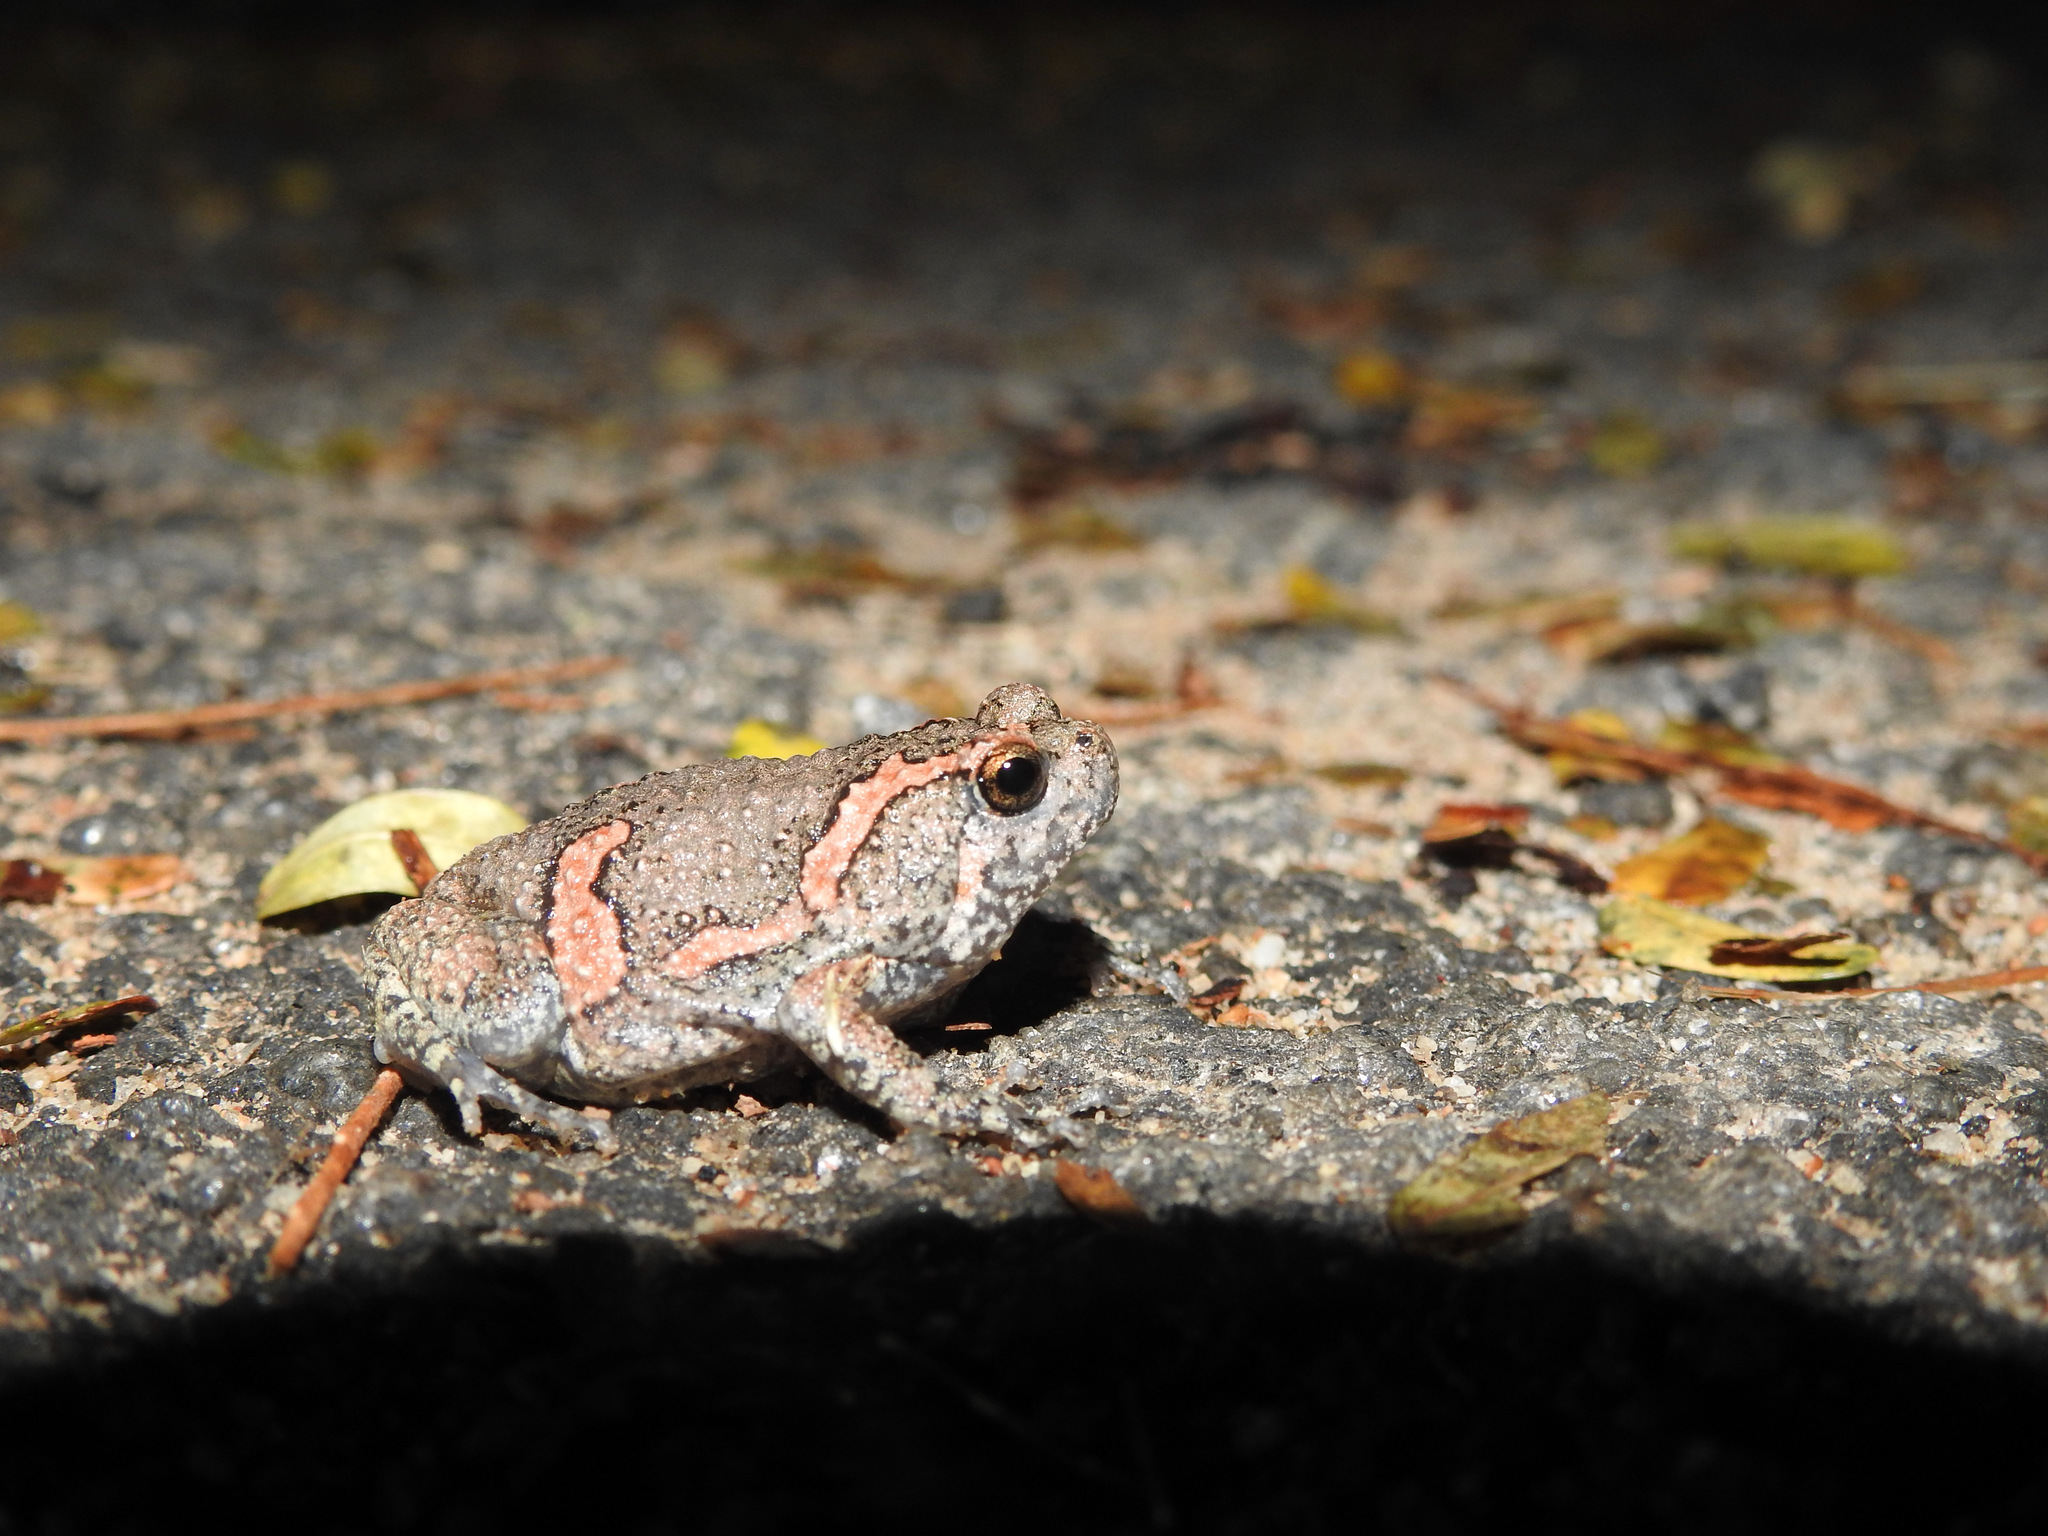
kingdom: Animalia
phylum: Chordata
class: Amphibia
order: Anura
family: Microhylidae
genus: Uperodon
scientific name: Uperodon taprobanicus
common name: Ceylon kaloula
